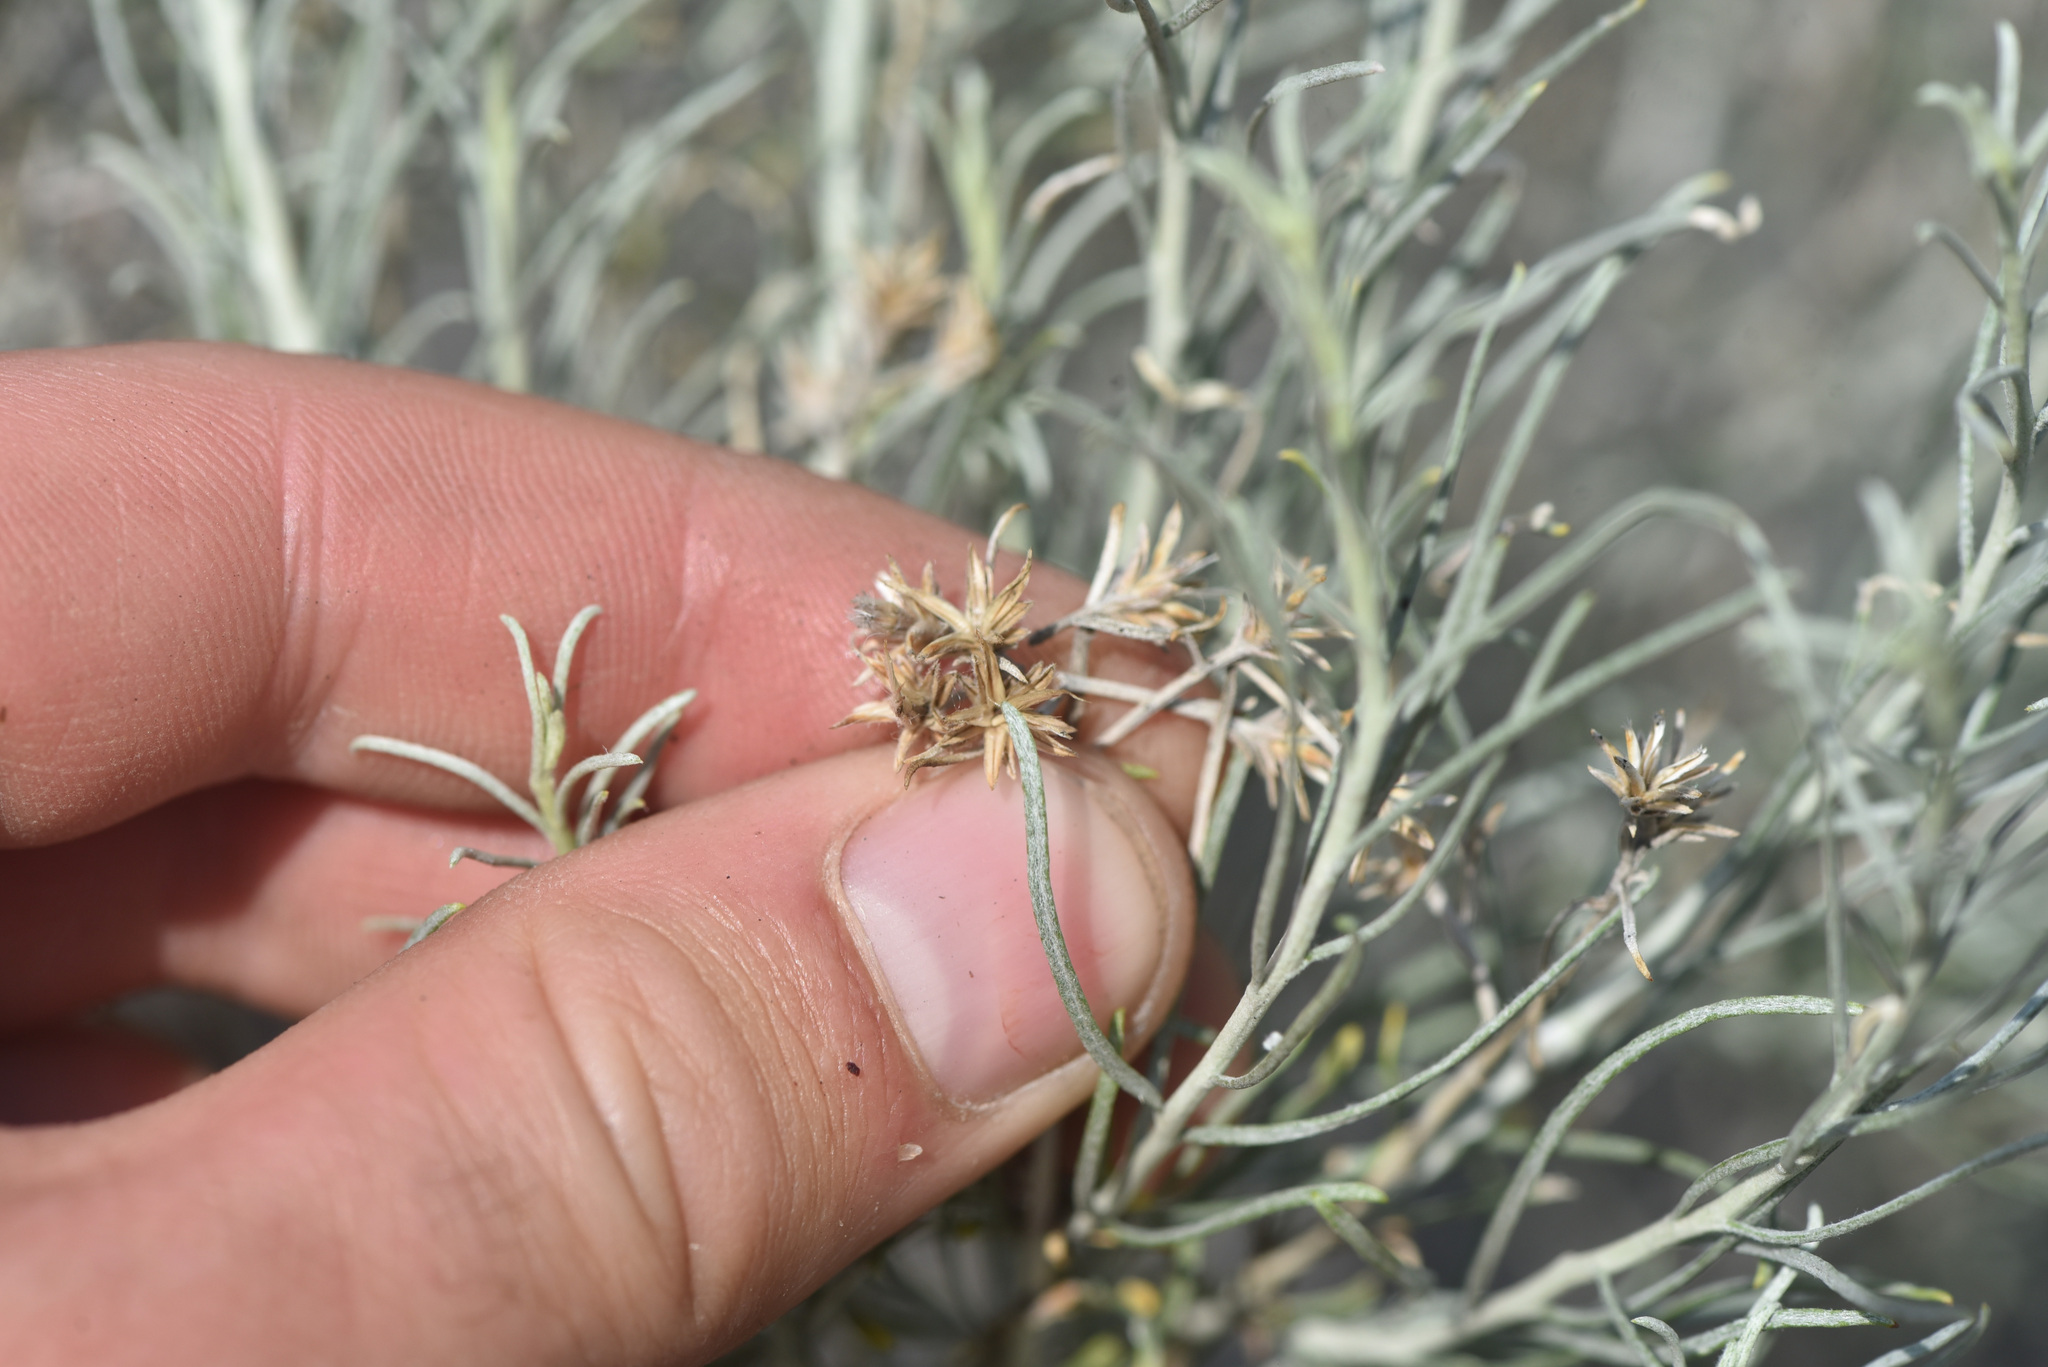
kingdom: Plantae
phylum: Tracheophyta
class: Magnoliopsida
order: Asterales
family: Asteraceae
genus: Ericameria
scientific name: Ericameria nauseosa
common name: Rubber rabbitbrush
